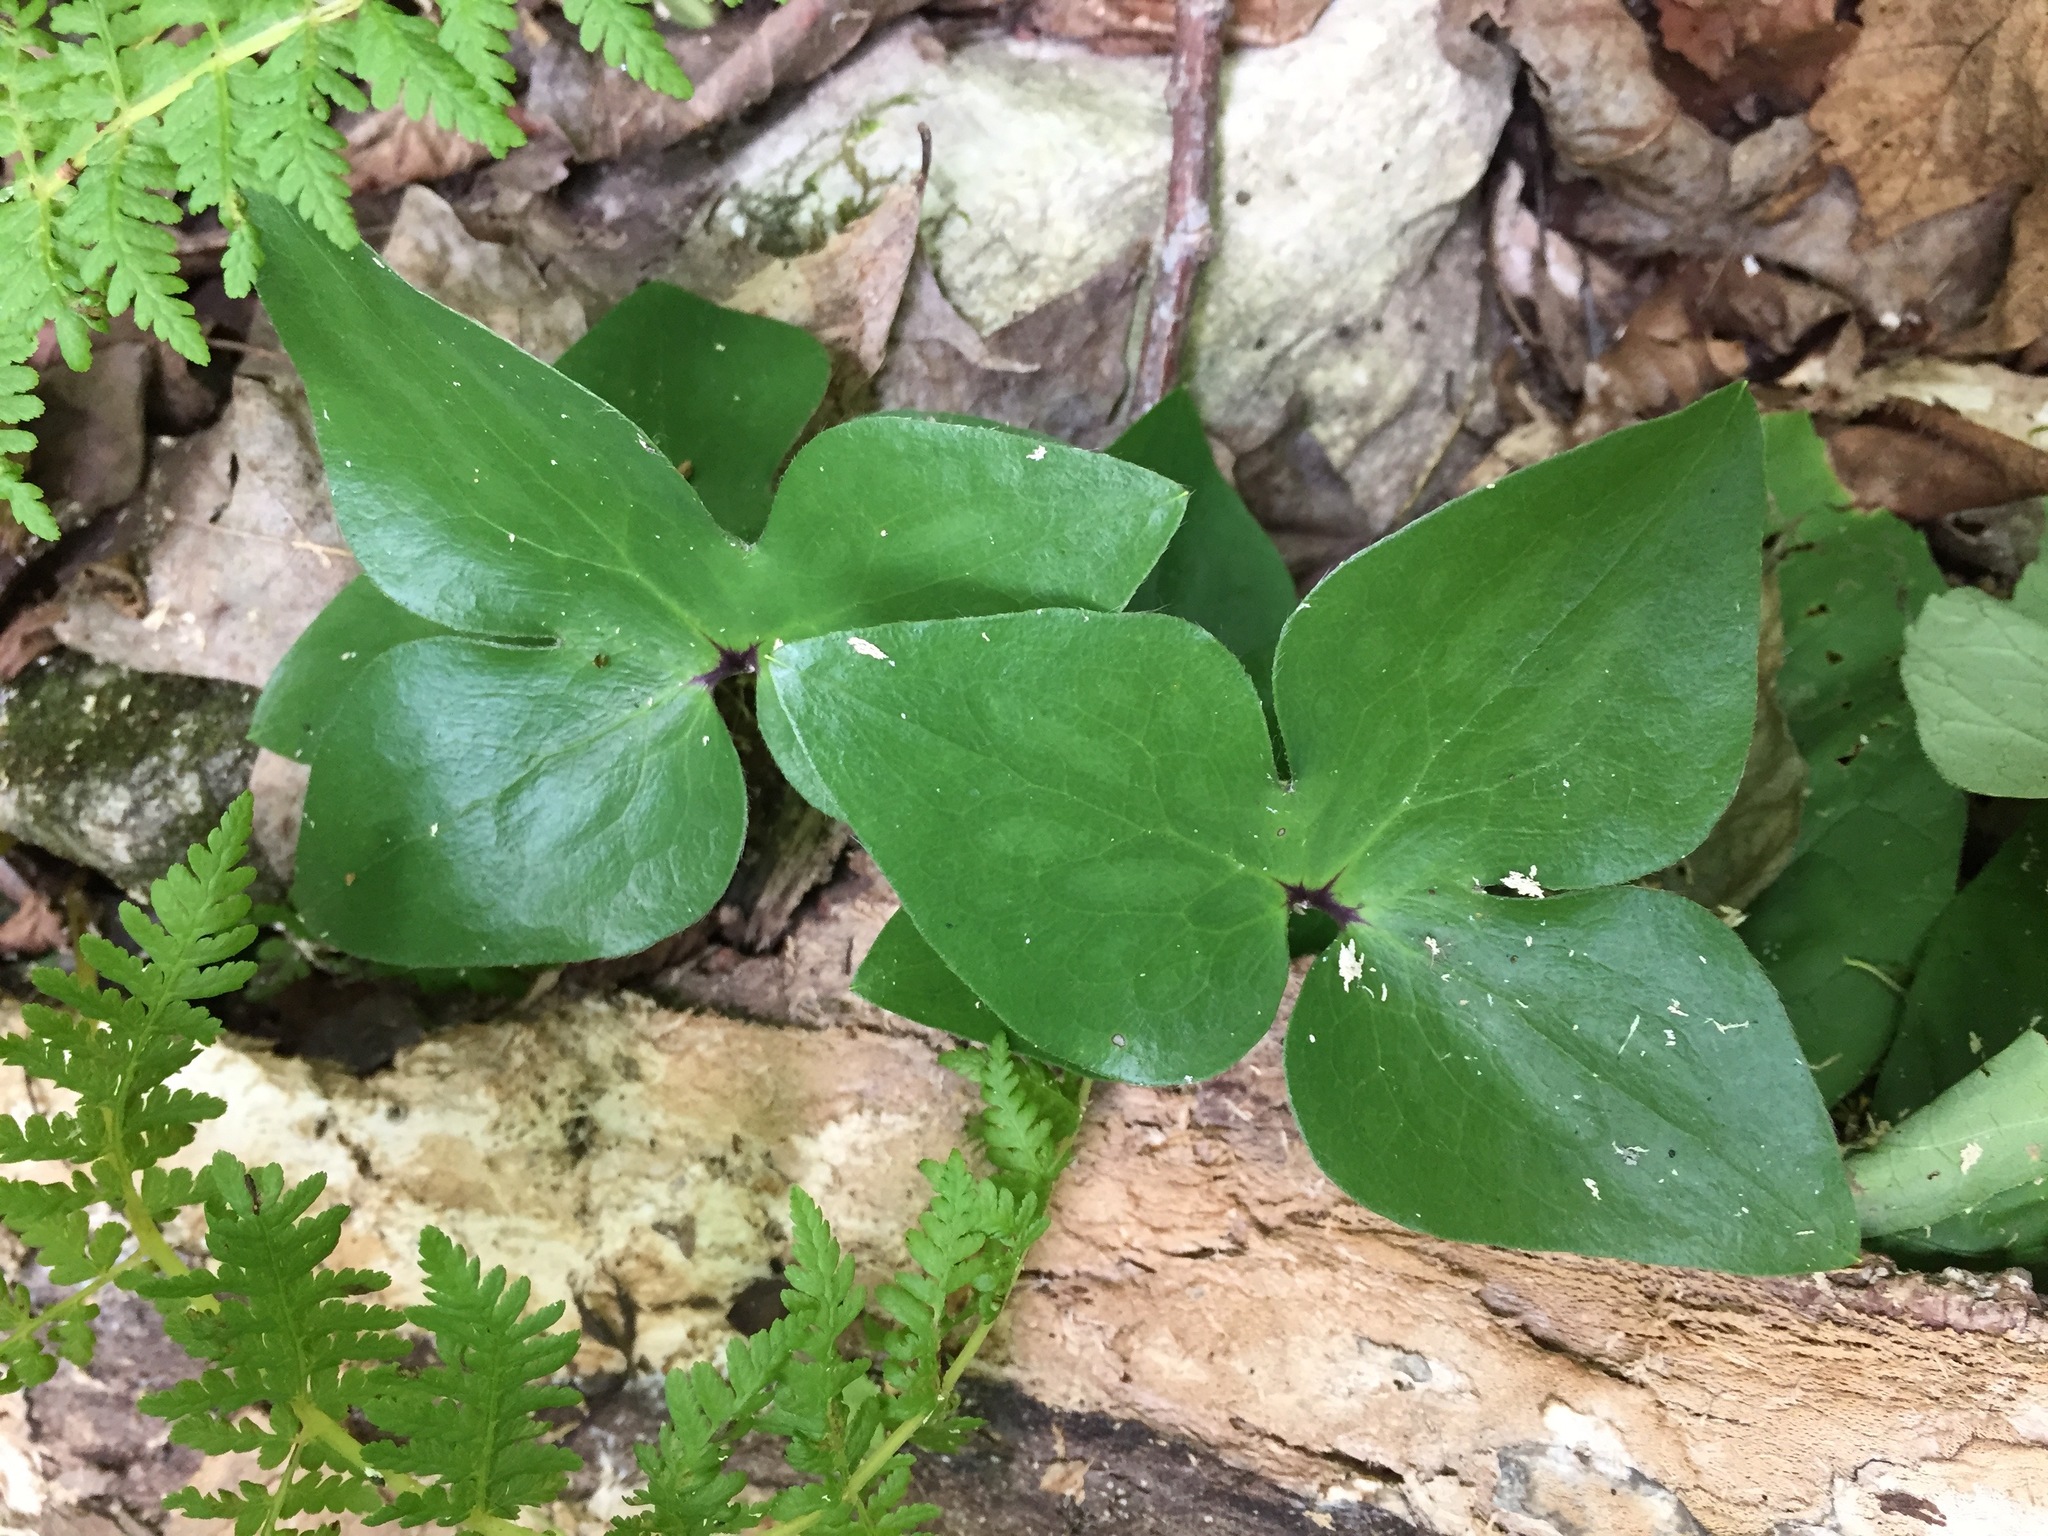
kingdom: Plantae
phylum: Tracheophyta
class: Magnoliopsida
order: Ranunculales
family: Ranunculaceae
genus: Hepatica
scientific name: Hepatica acutiloba
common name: Sharp-lobed hepatica
